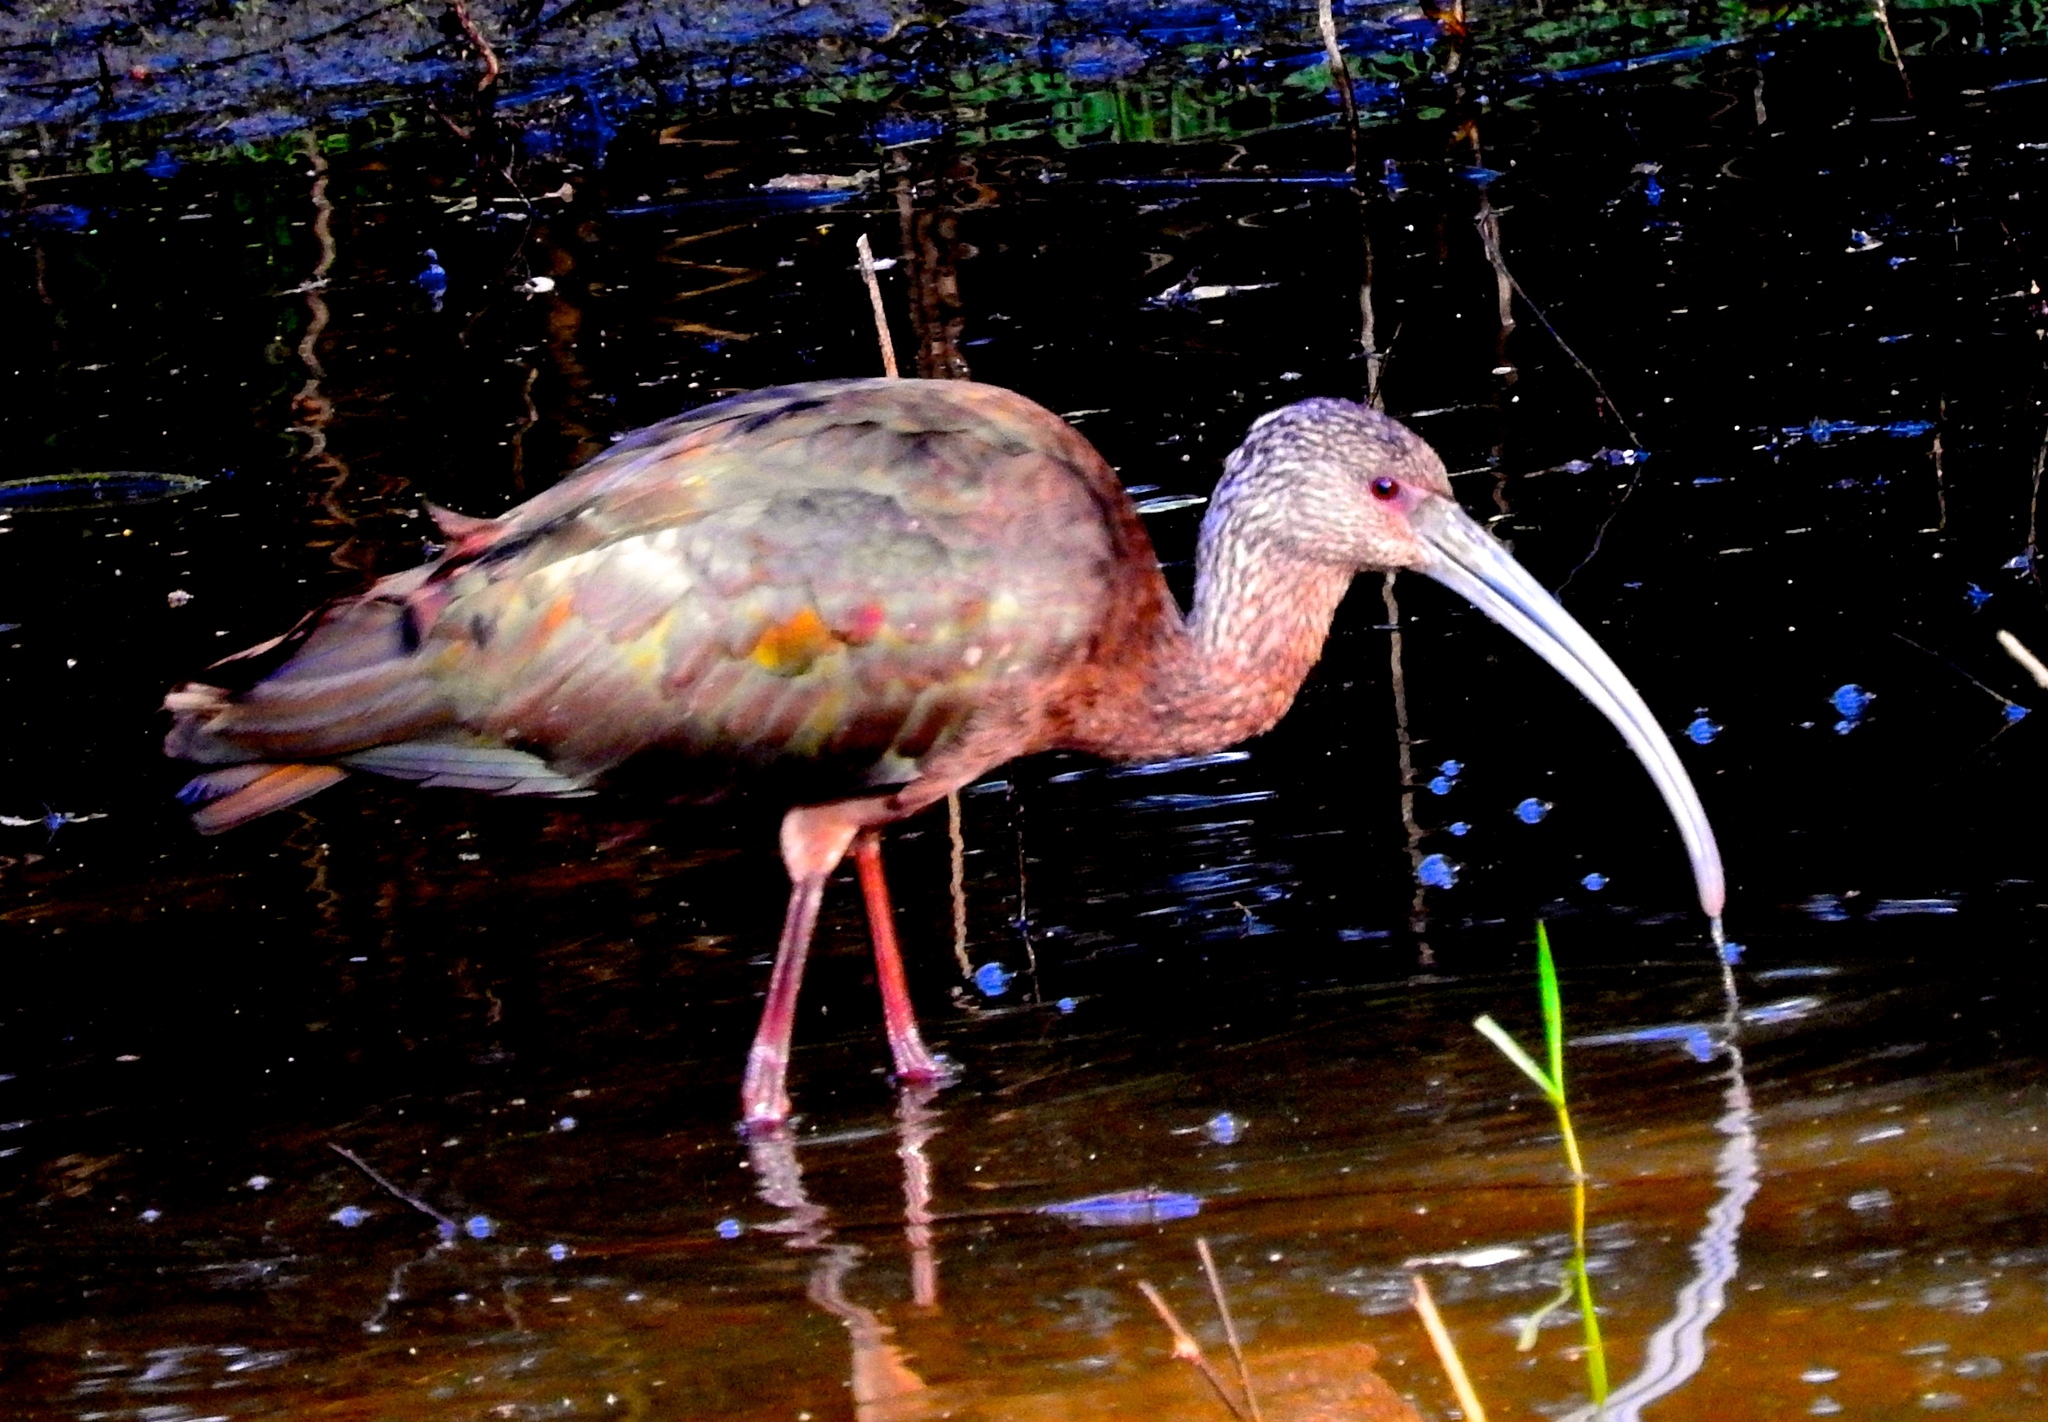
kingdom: Animalia
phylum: Chordata
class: Aves
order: Pelecaniformes
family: Threskiornithidae
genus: Plegadis
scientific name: Plegadis chihi
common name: White-faced ibis
